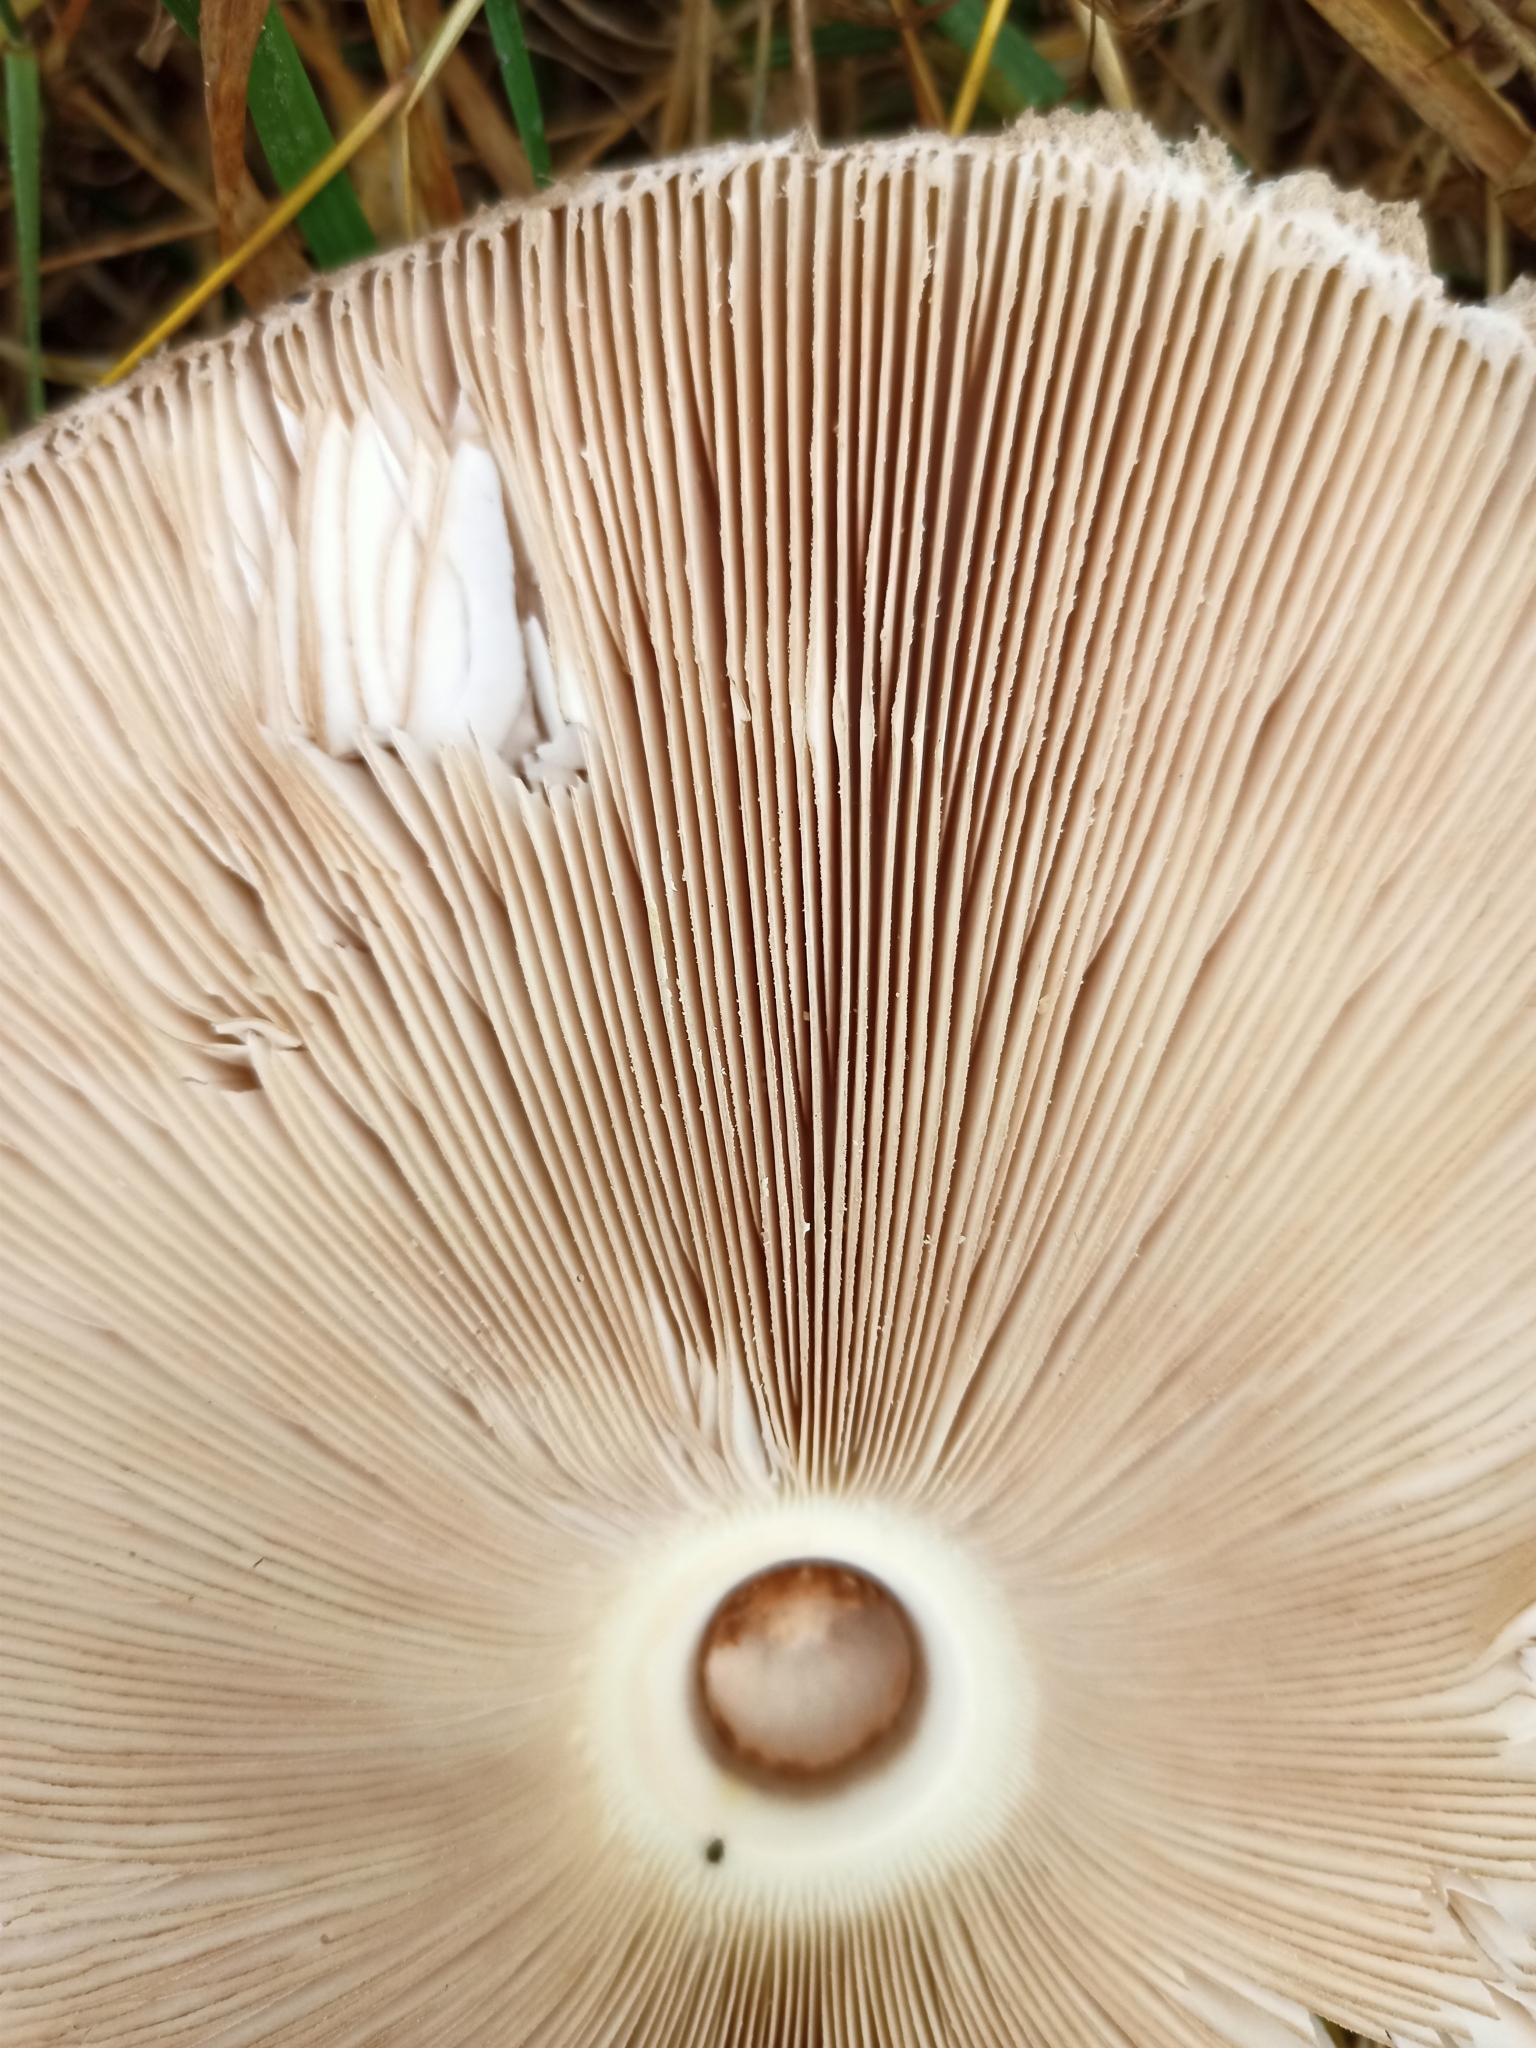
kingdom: Fungi
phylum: Basidiomycota
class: Agaricomycetes
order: Agaricales
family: Agaricaceae
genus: Macrolepiota
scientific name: Macrolepiota procera
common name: Parasol
